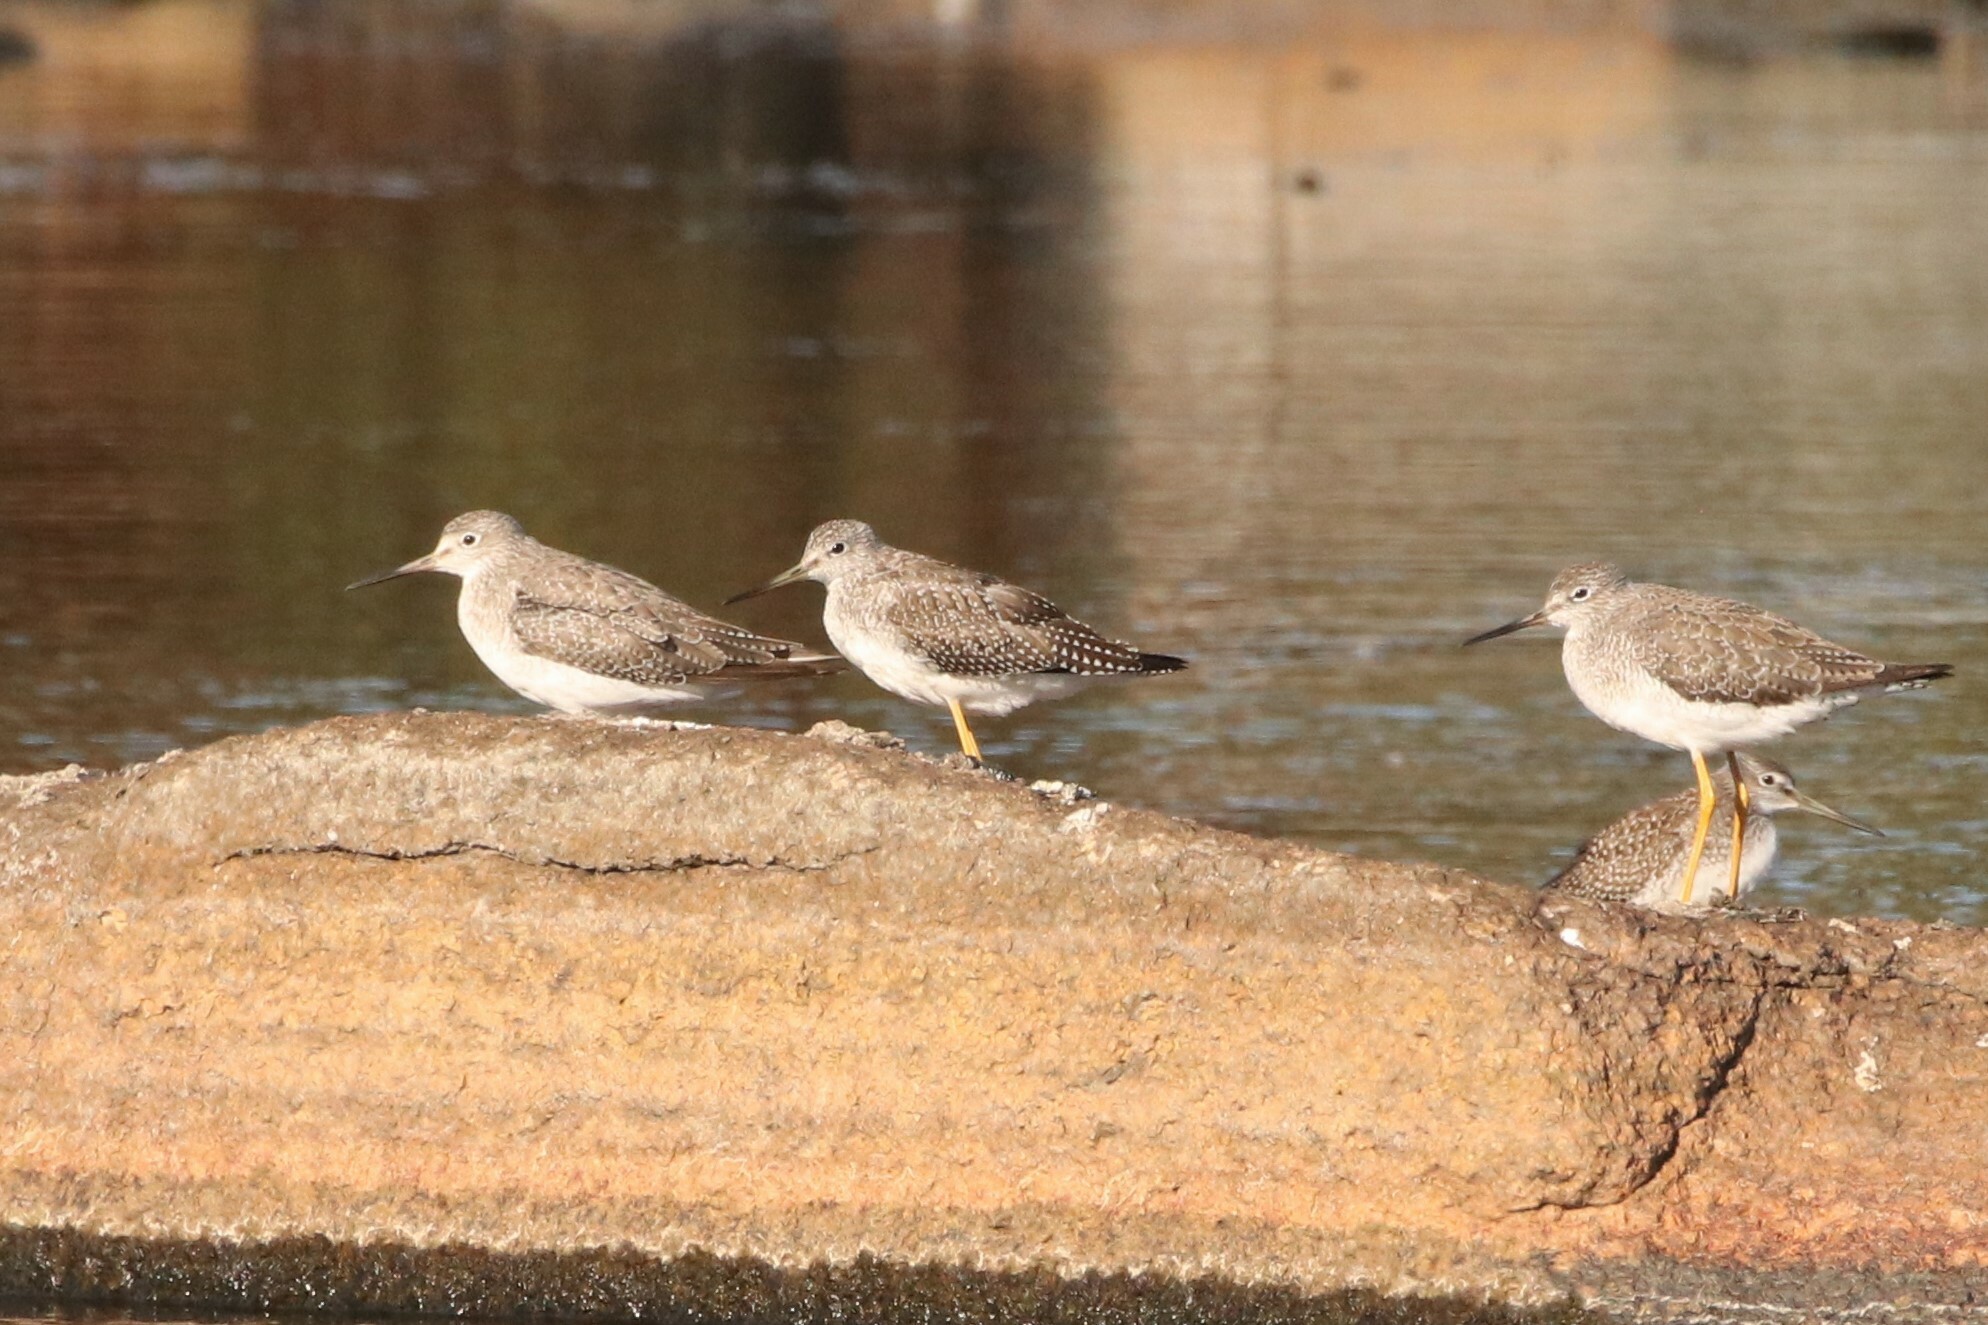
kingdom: Animalia
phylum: Chordata
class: Aves
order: Charadriiformes
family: Scolopacidae
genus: Tringa
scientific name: Tringa melanoleuca
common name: Greater yellowlegs
